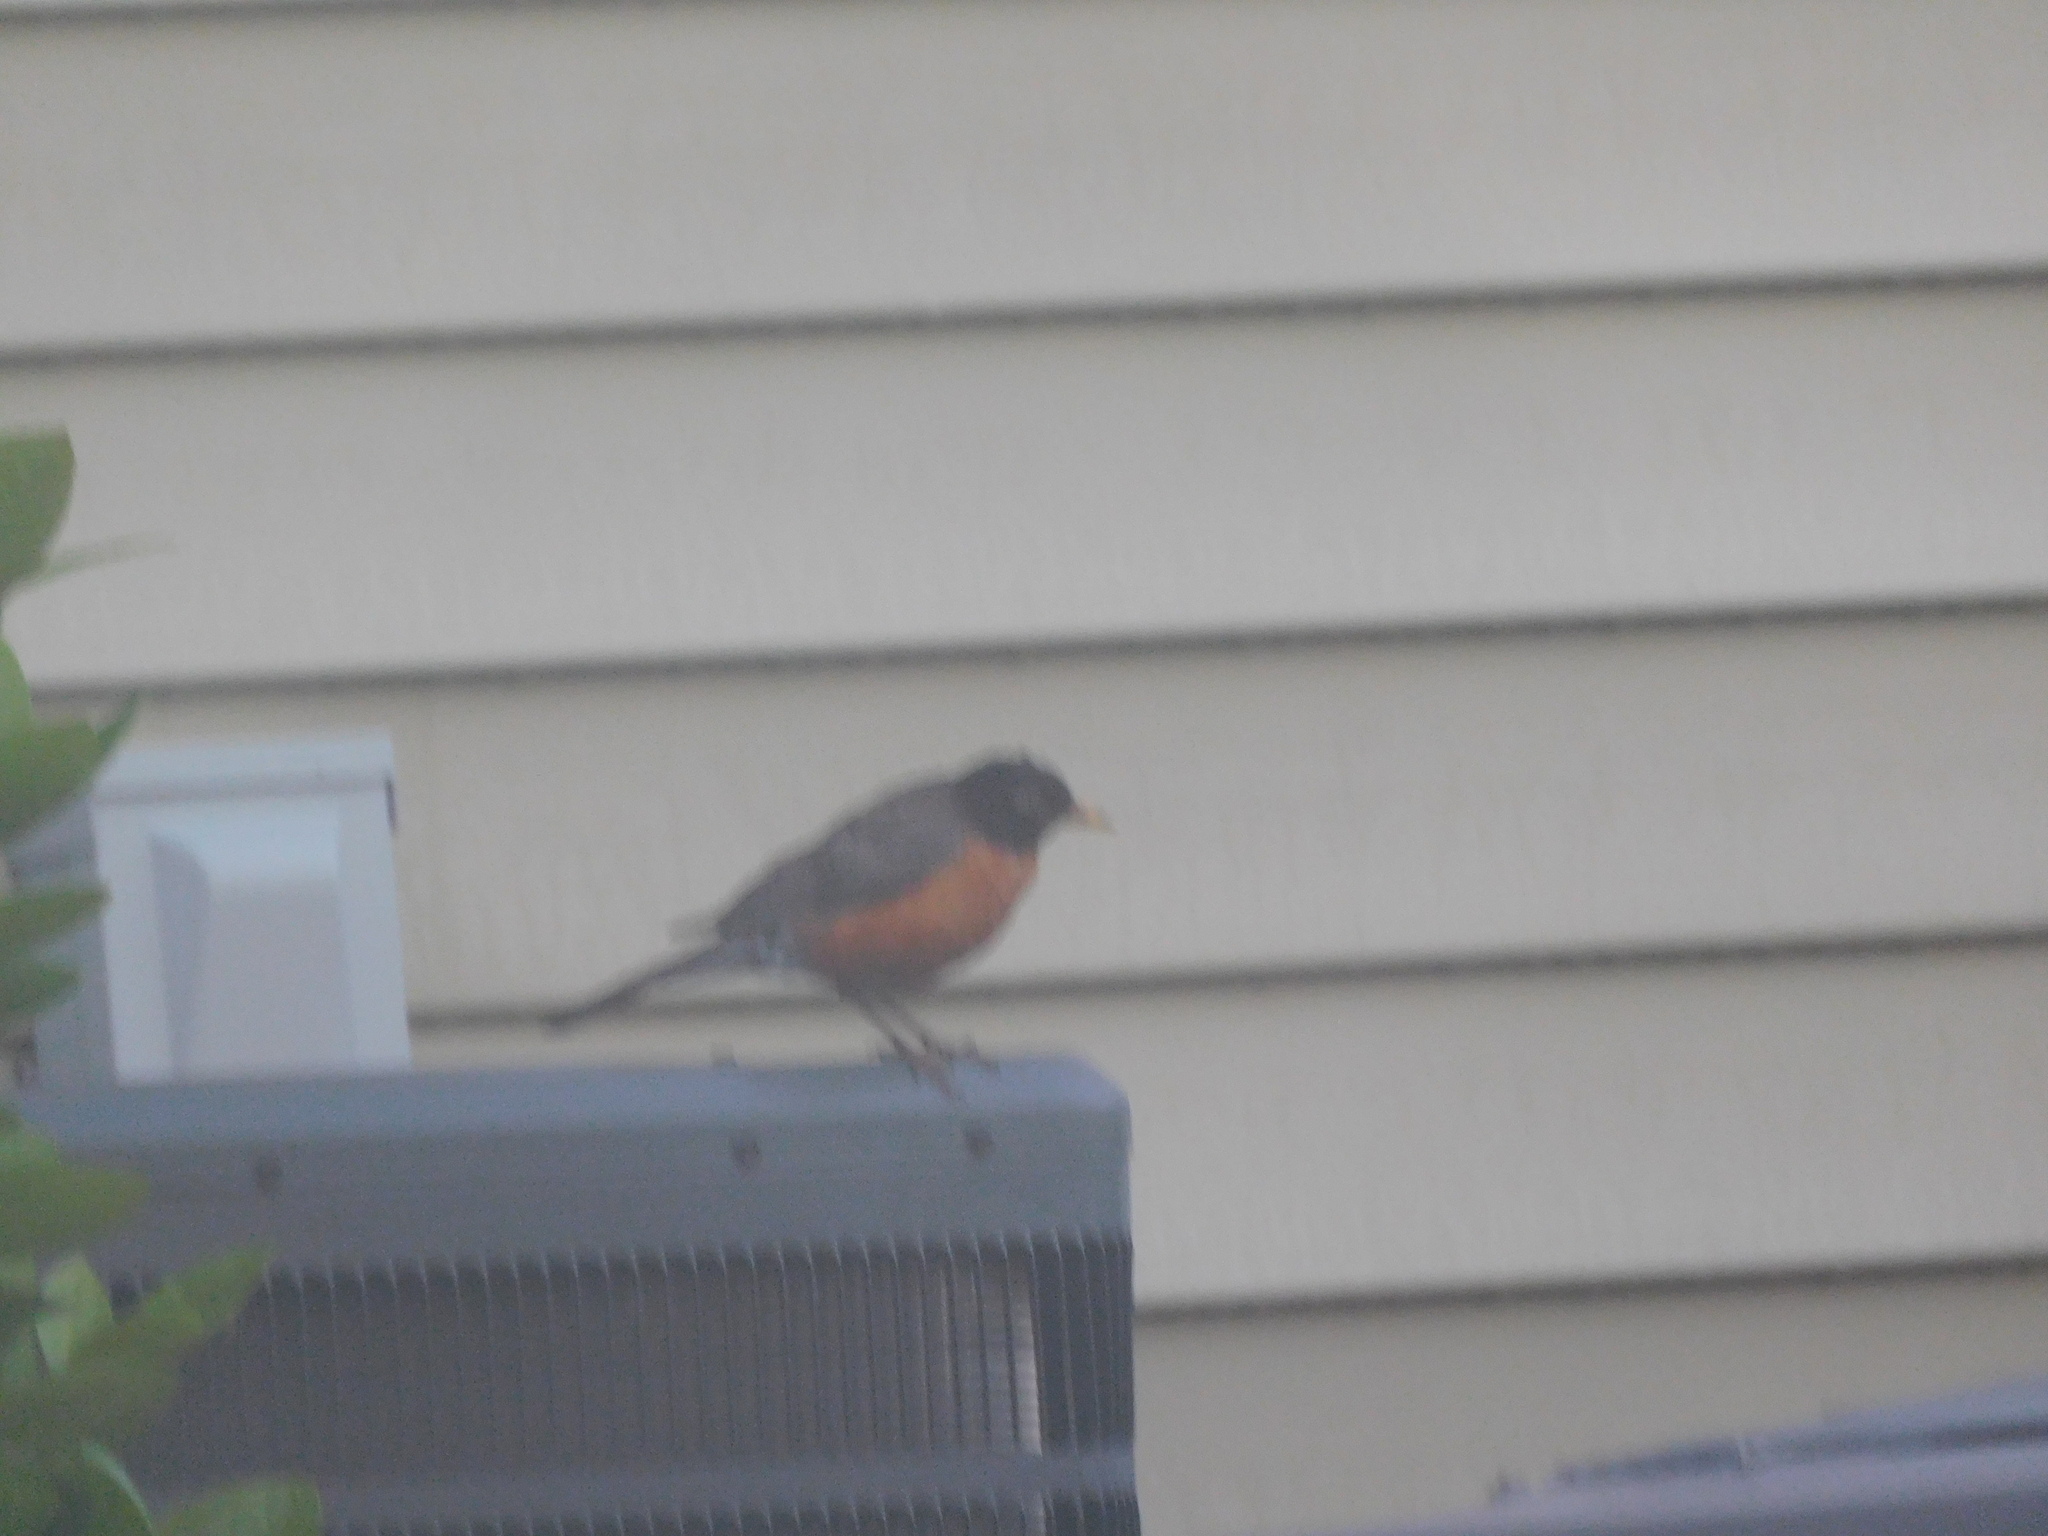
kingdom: Animalia
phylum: Chordata
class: Aves
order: Passeriformes
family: Turdidae
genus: Turdus
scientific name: Turdus migratorius
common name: American robin
